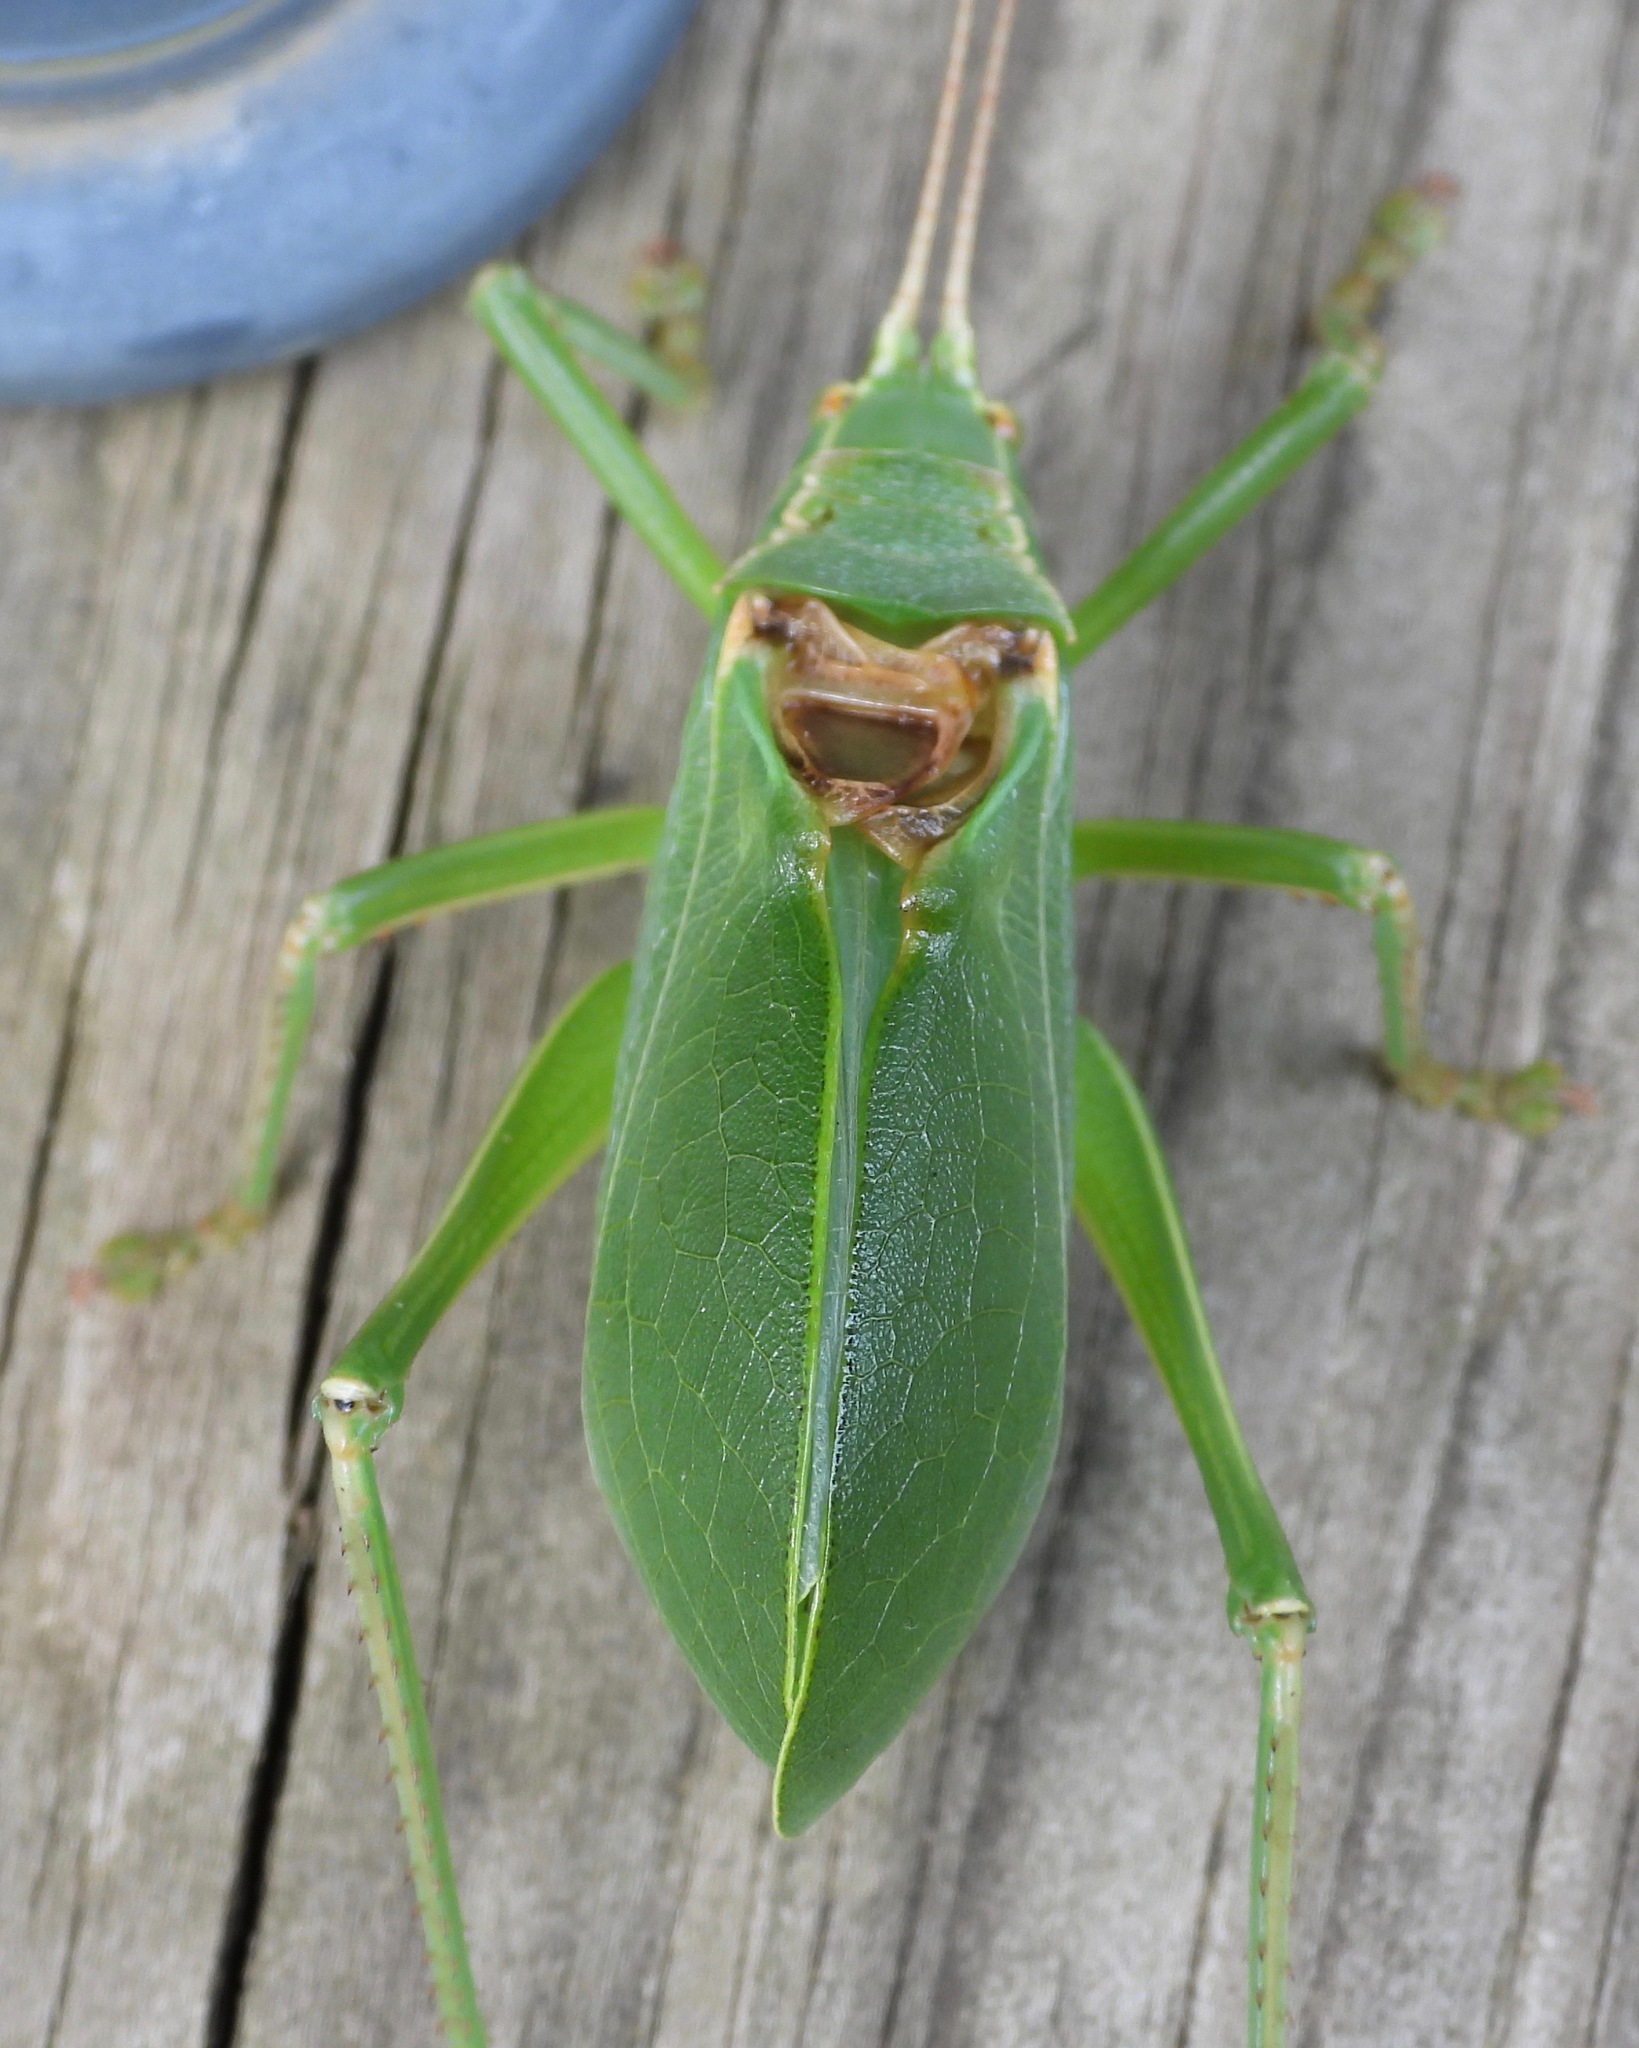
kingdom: Animalia
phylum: Arthropoda
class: Insecta
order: Orthoptera
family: Tettigoniidae
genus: Paracyrtophyllus
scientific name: Paracyrtophyllus robustus
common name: Central texas leaf katydid
